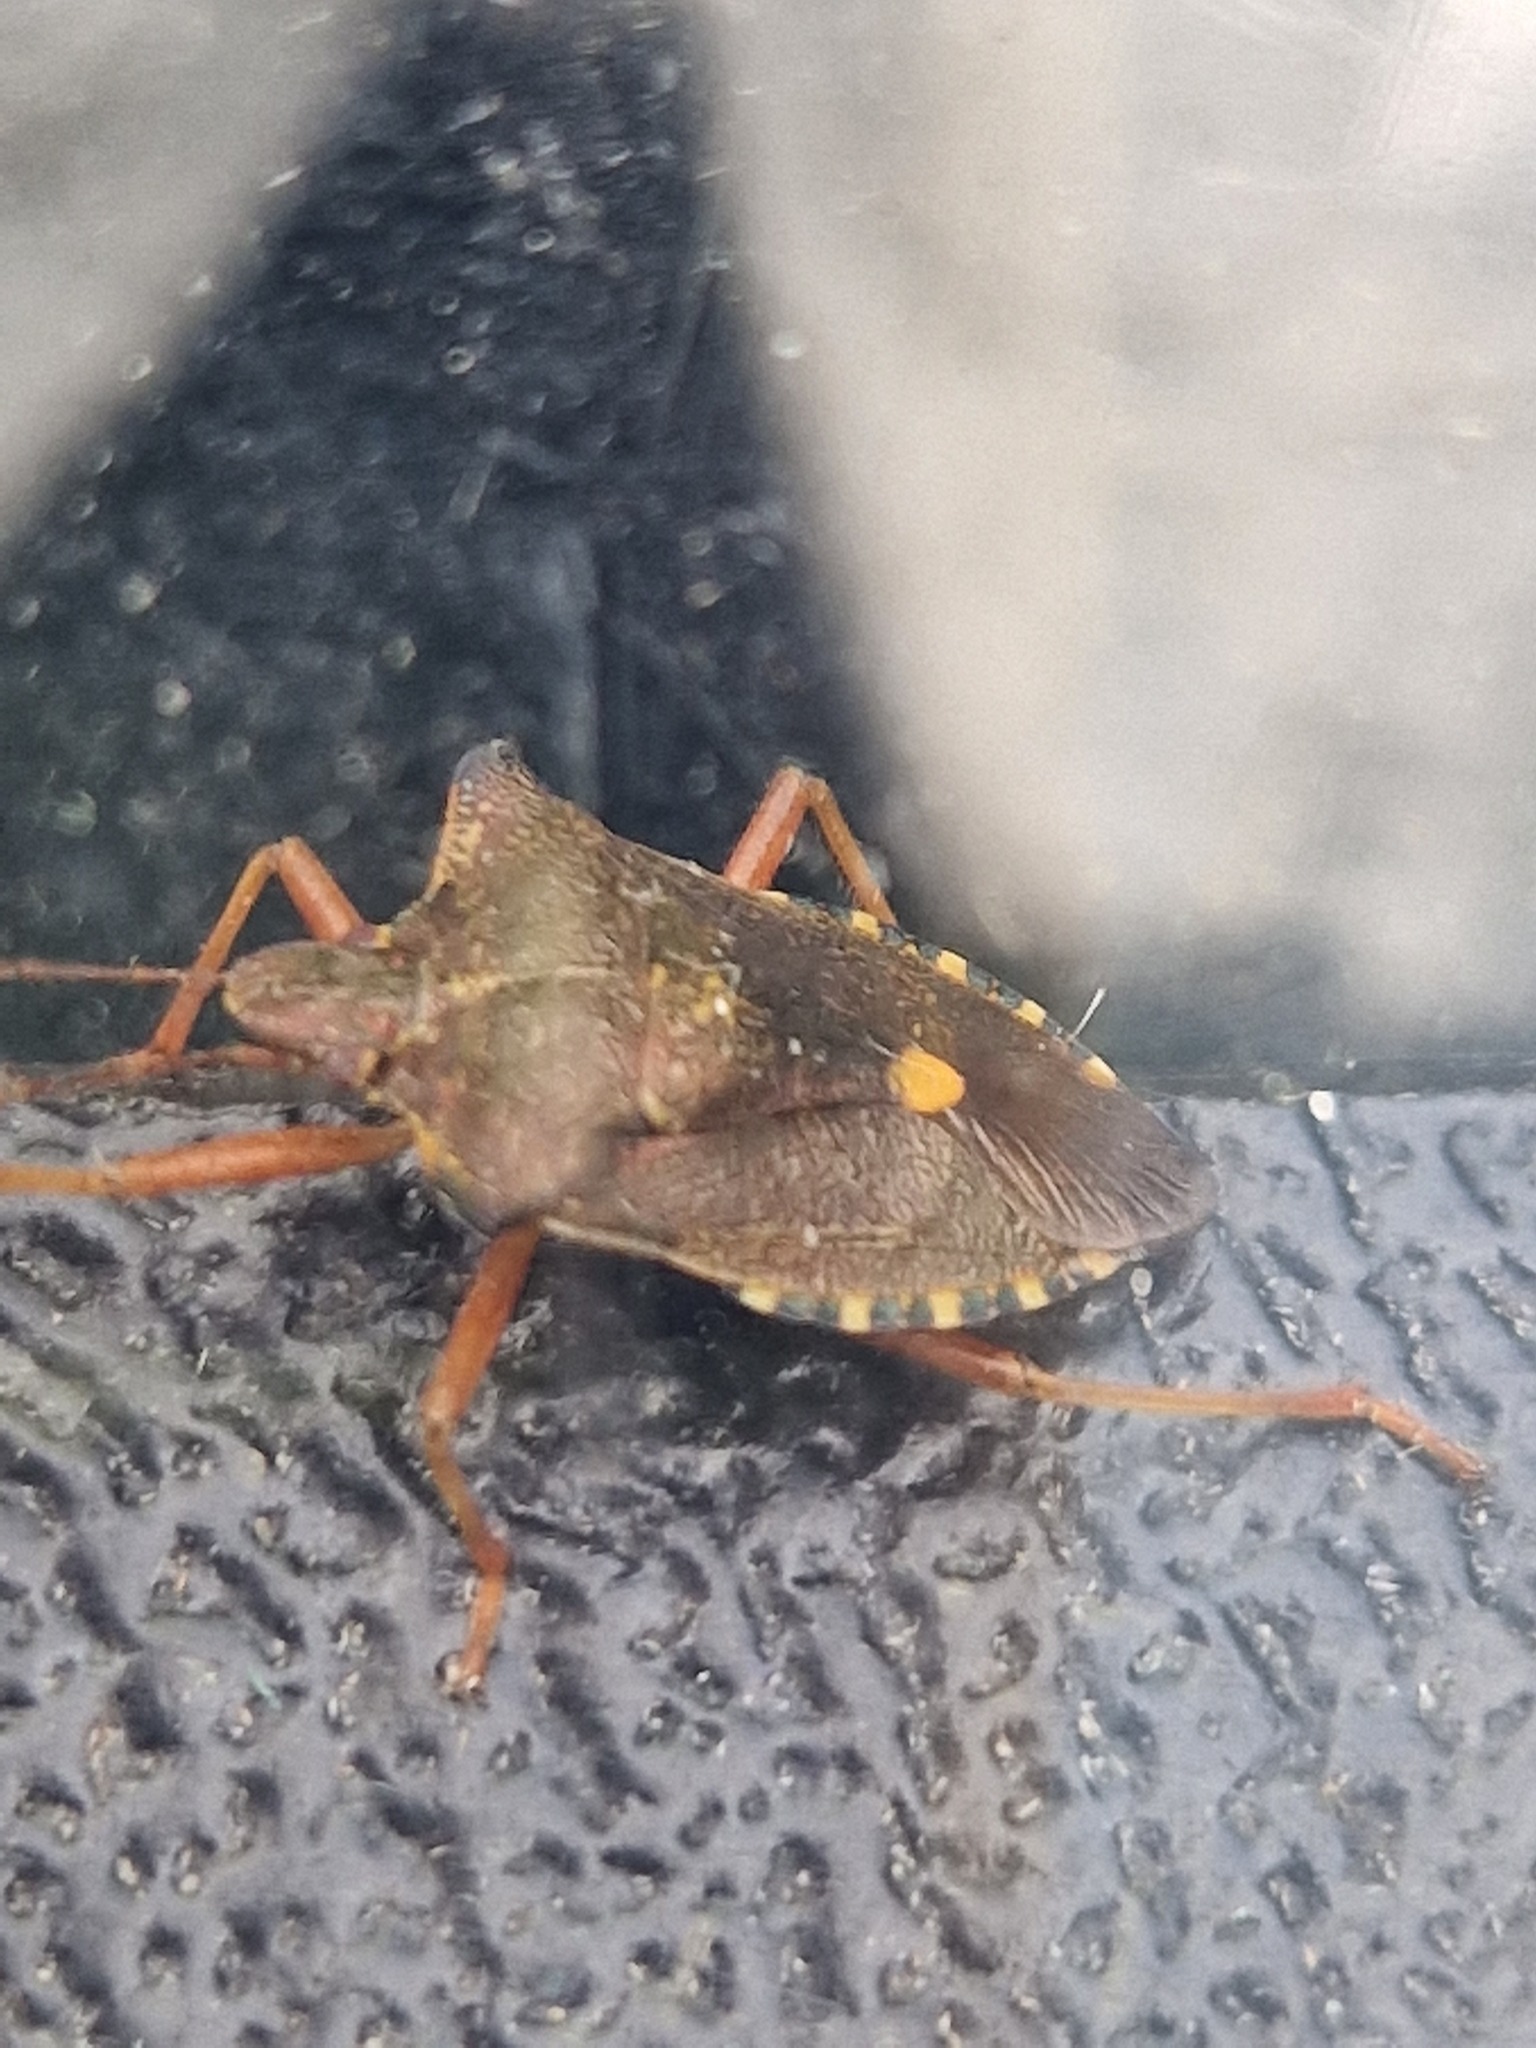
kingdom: Animalia
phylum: Arthropoda
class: Insecta
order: Hemiptera
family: Pentatomidae
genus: Pentatoma
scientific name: Pentatoma rufipes
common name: Forest bug
